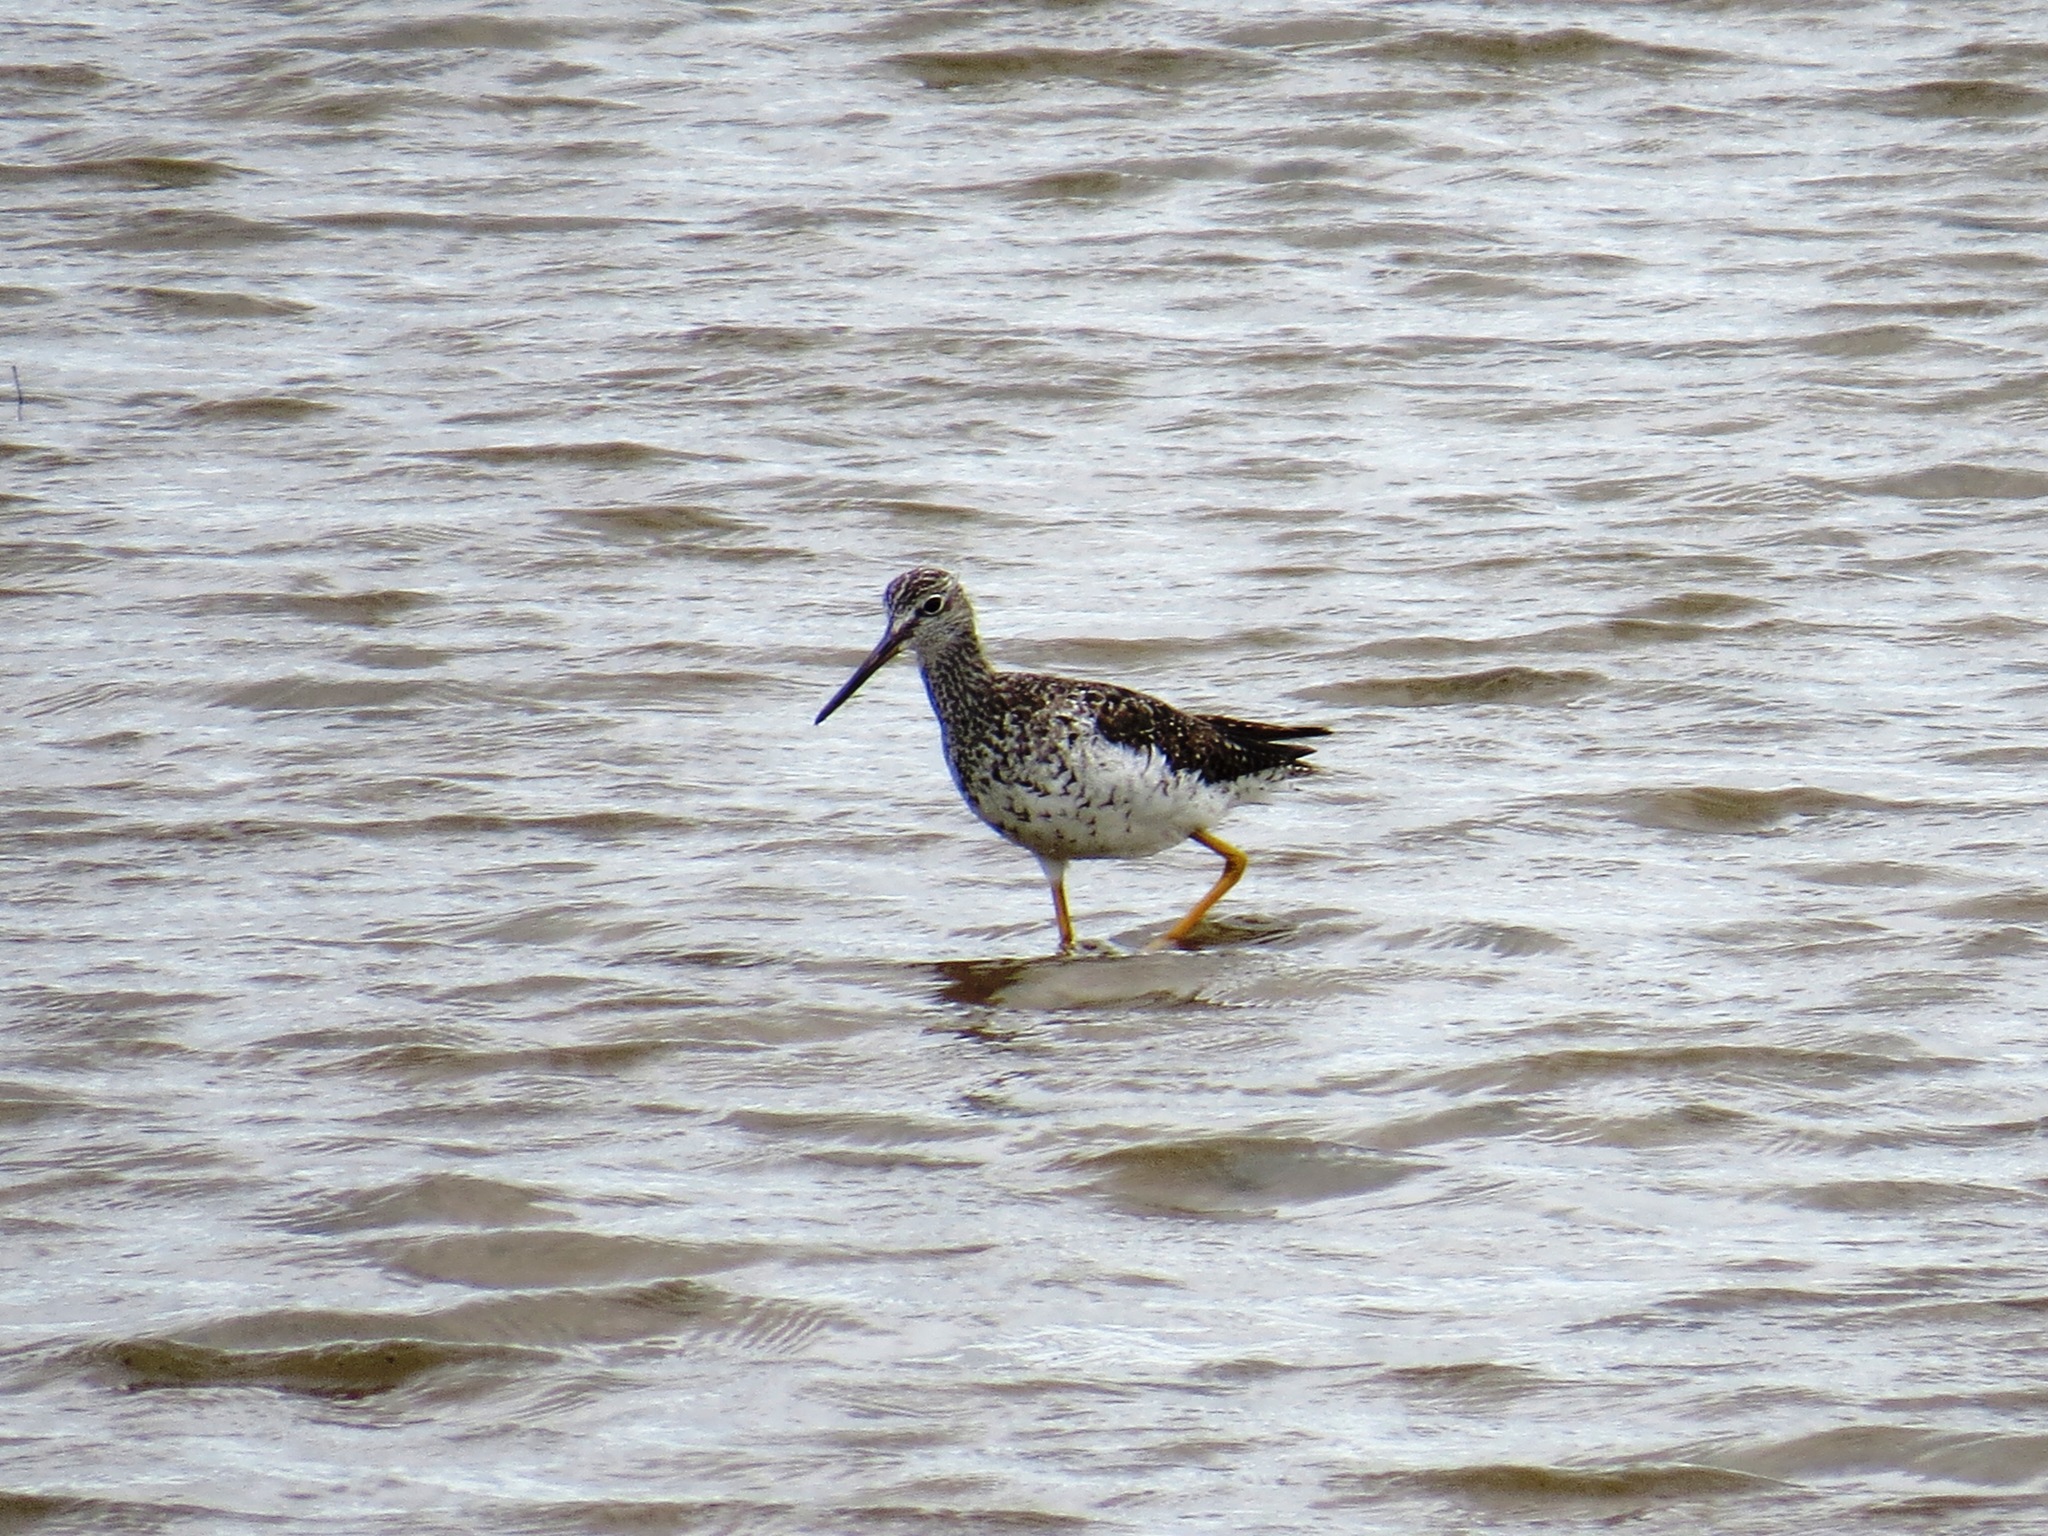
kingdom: Animalia
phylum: Chordata
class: Aves
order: Charadriiformes
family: Scolopacidae
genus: Tringa
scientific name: Tringa melanoleuca
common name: Greater yellowlegs
